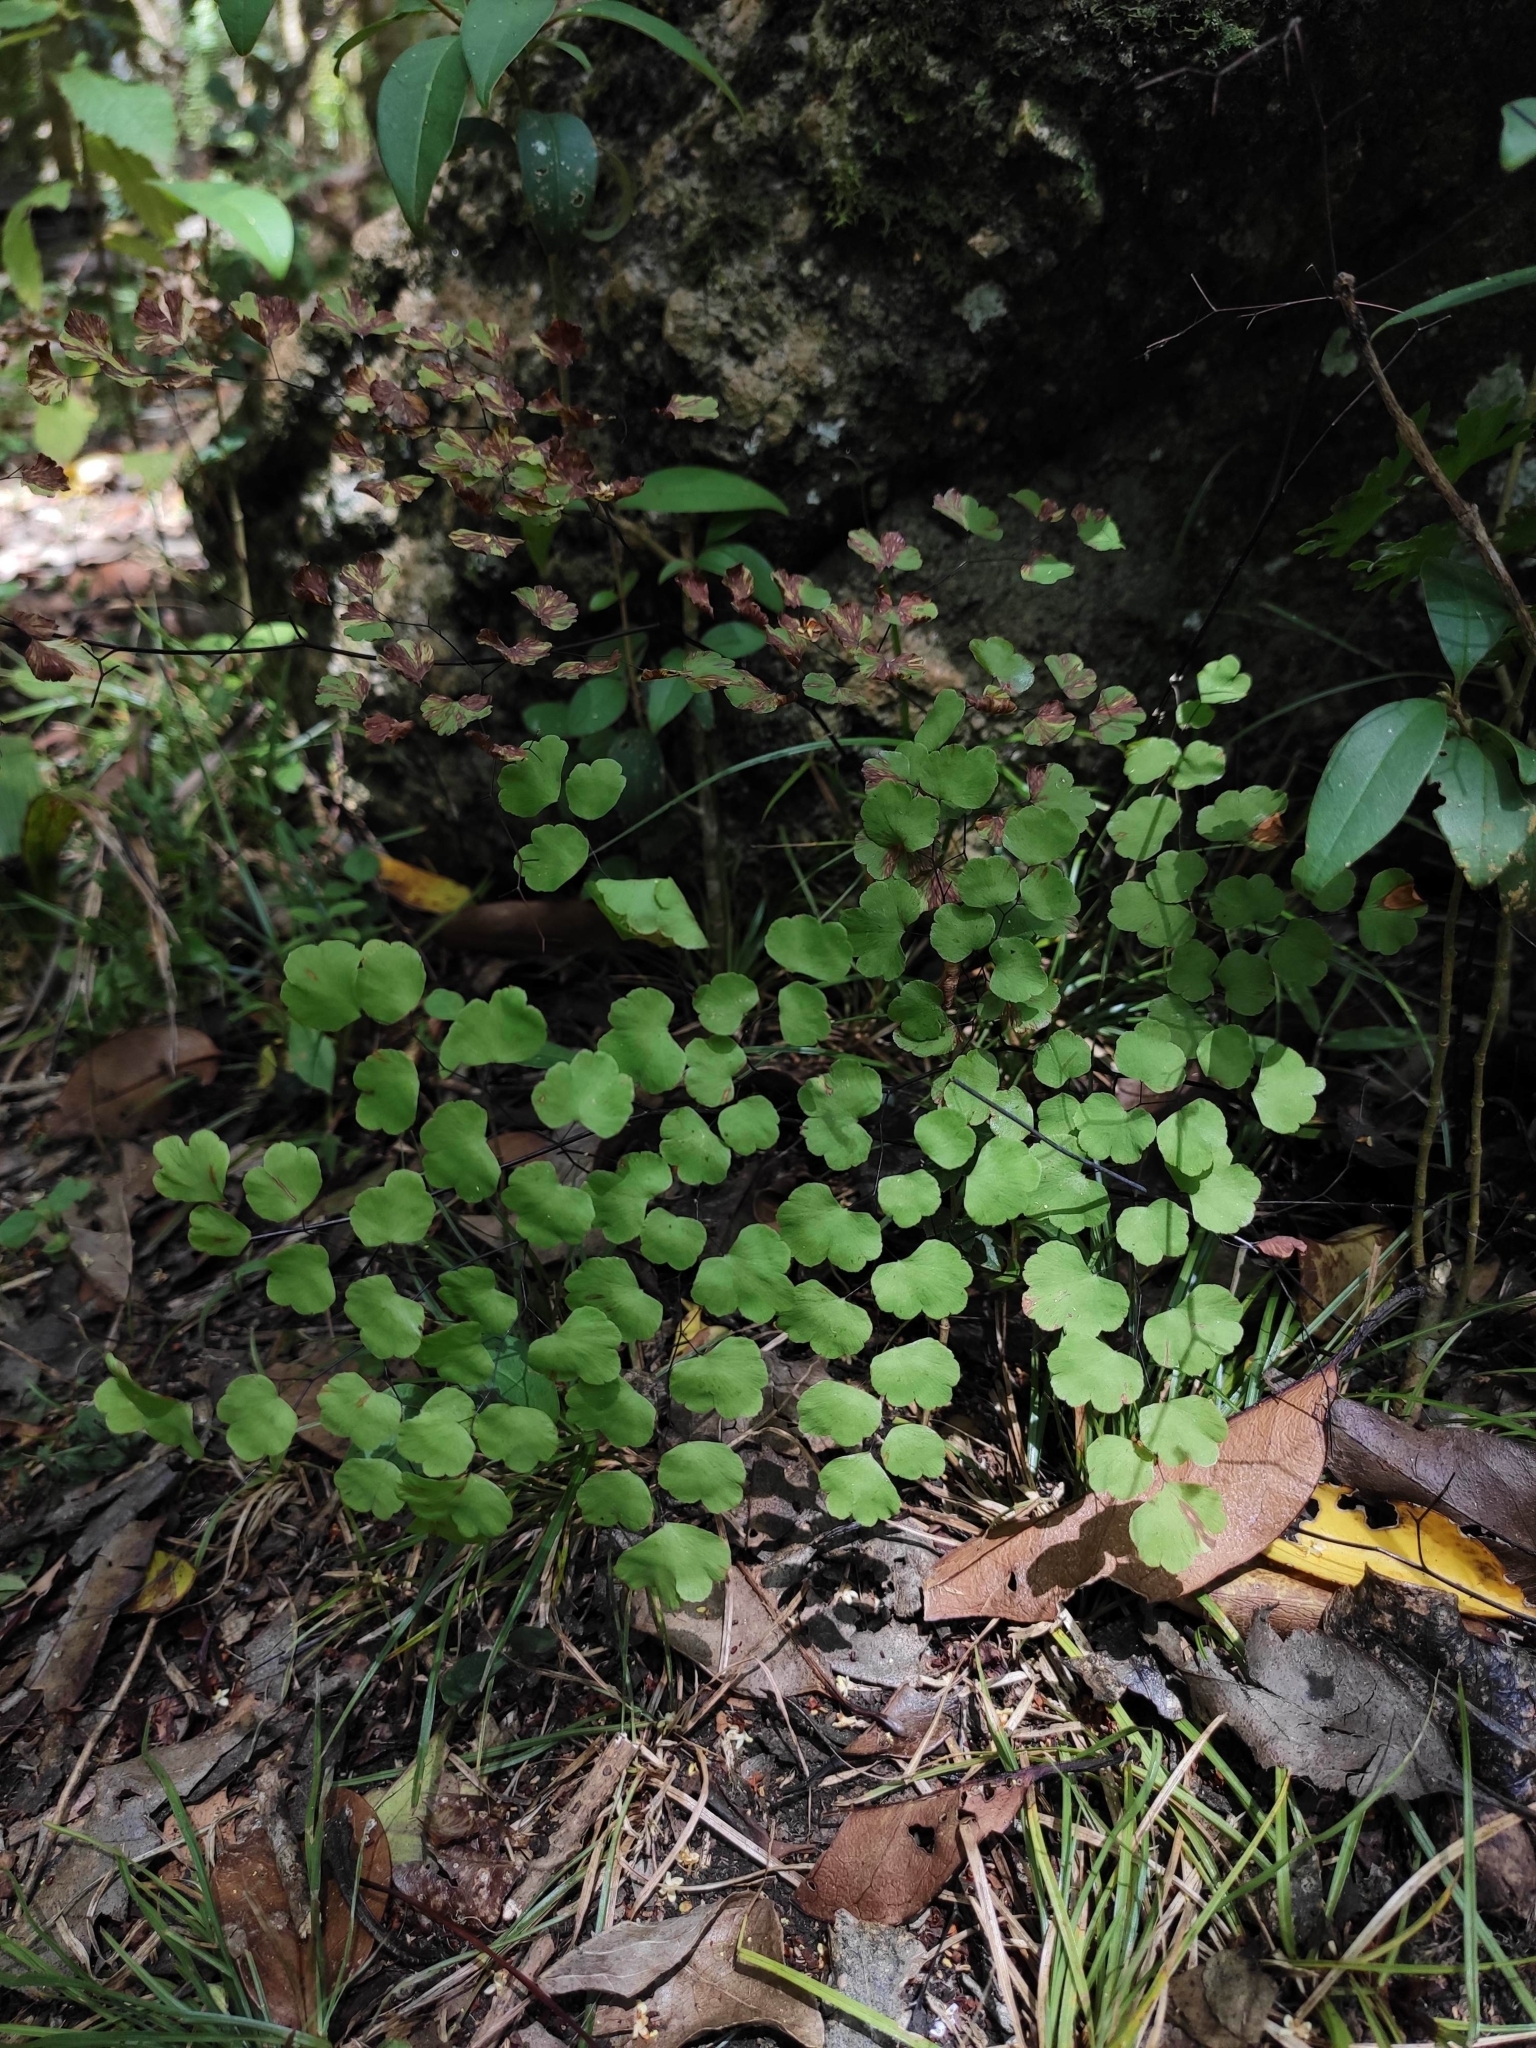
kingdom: Plantae
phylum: Tracheophyta
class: Polypodiopsida
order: Polypodiales
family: Pteridaceae
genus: Adiantum
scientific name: Adiantum poiretii
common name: Mexican maidenhair
